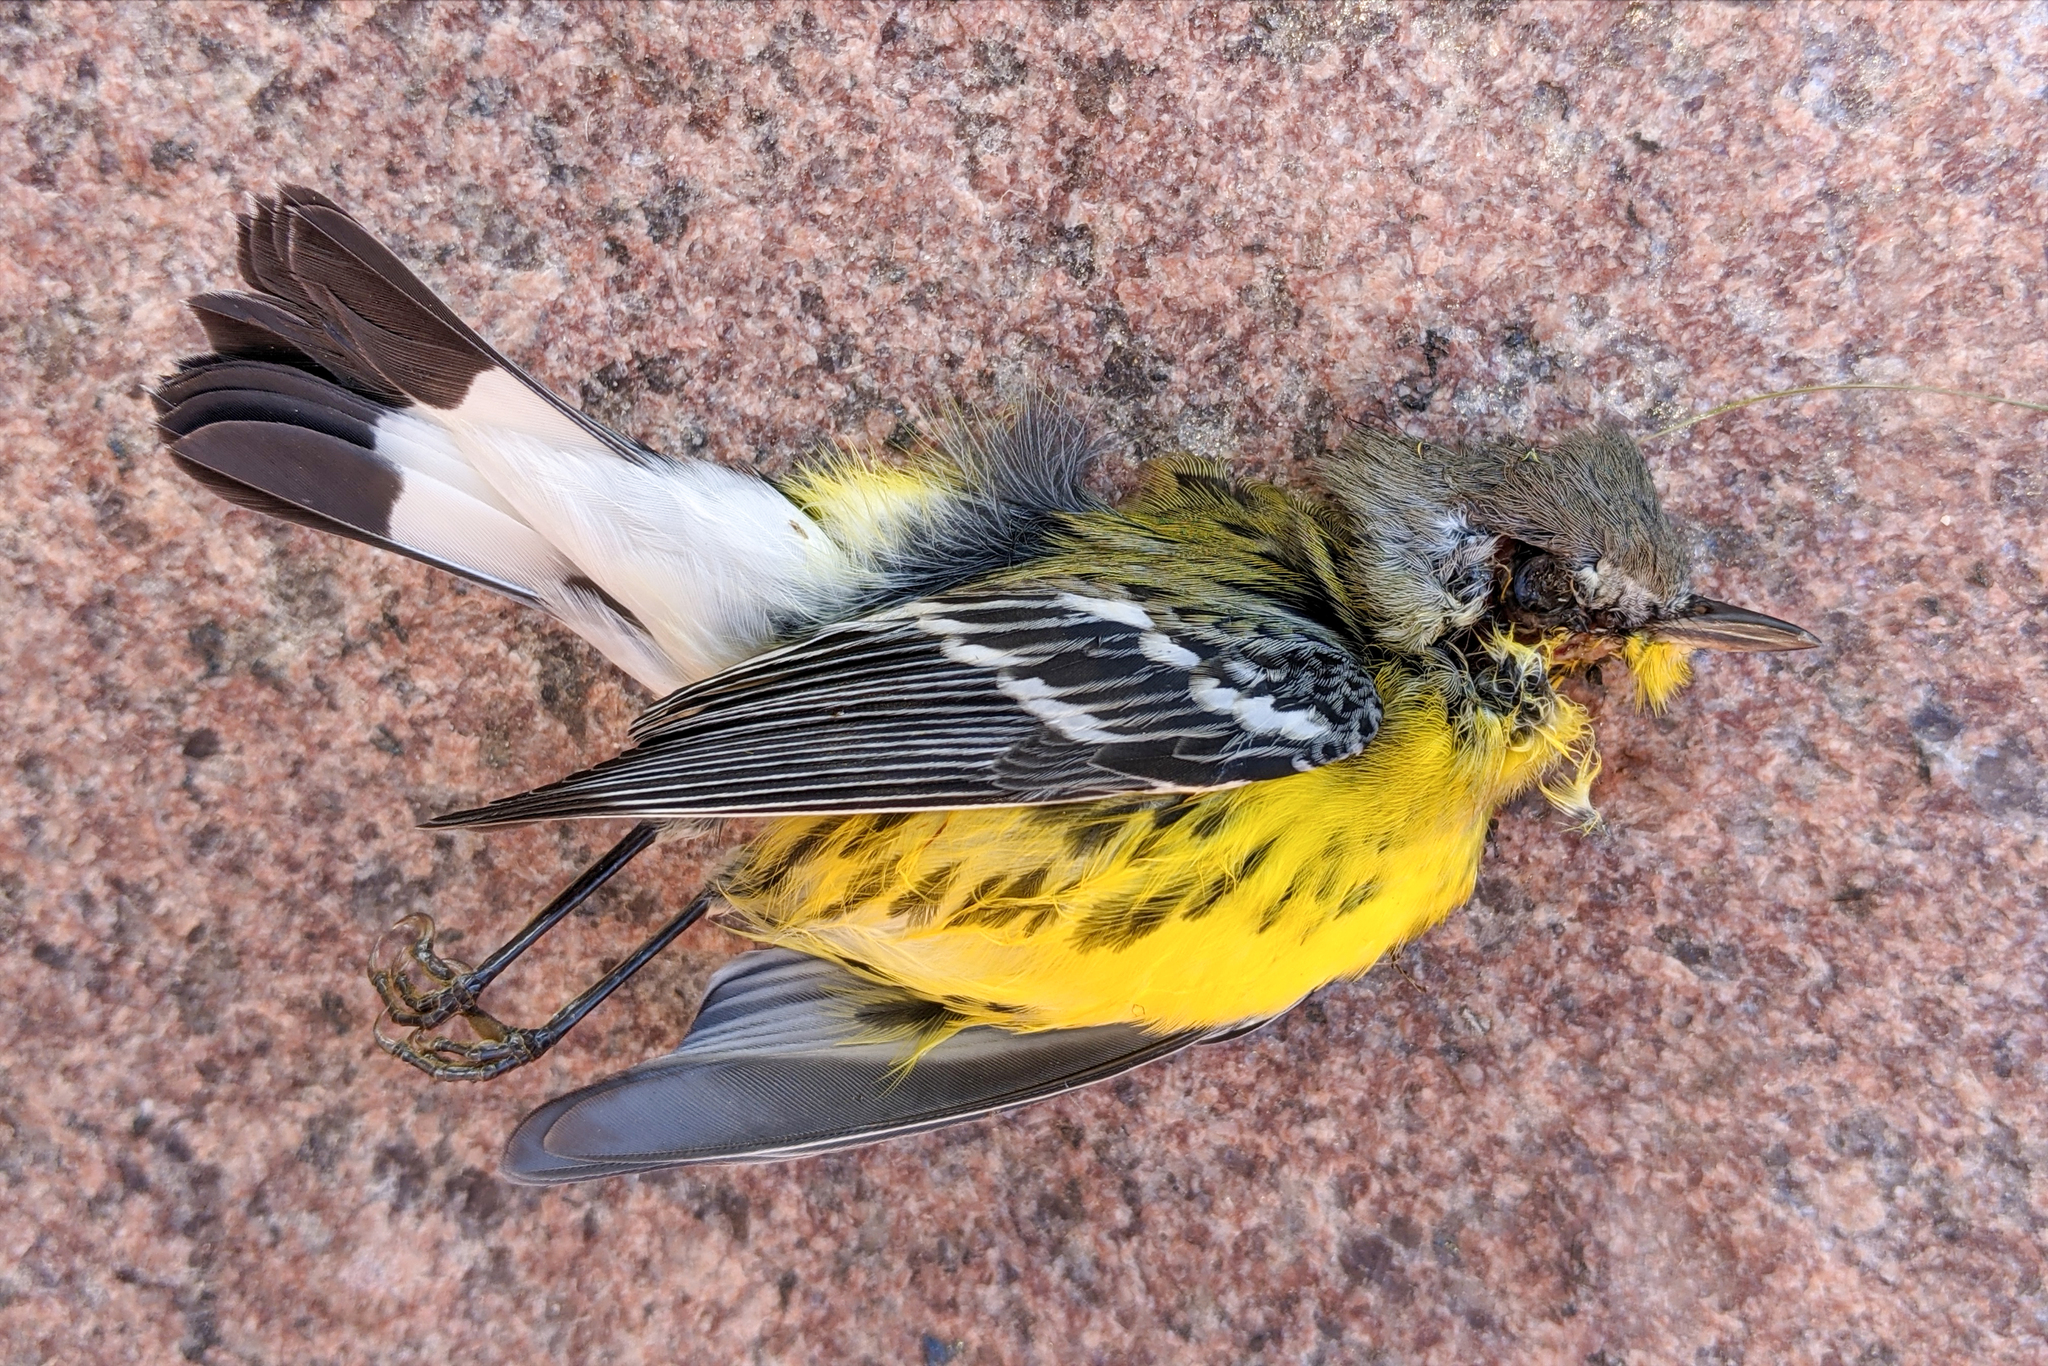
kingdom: Animalia
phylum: Chordata
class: Aves
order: Passeriformes
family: Parulidae
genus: Setophaga
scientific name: Setophaga magnolia
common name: Magnolia warbler
